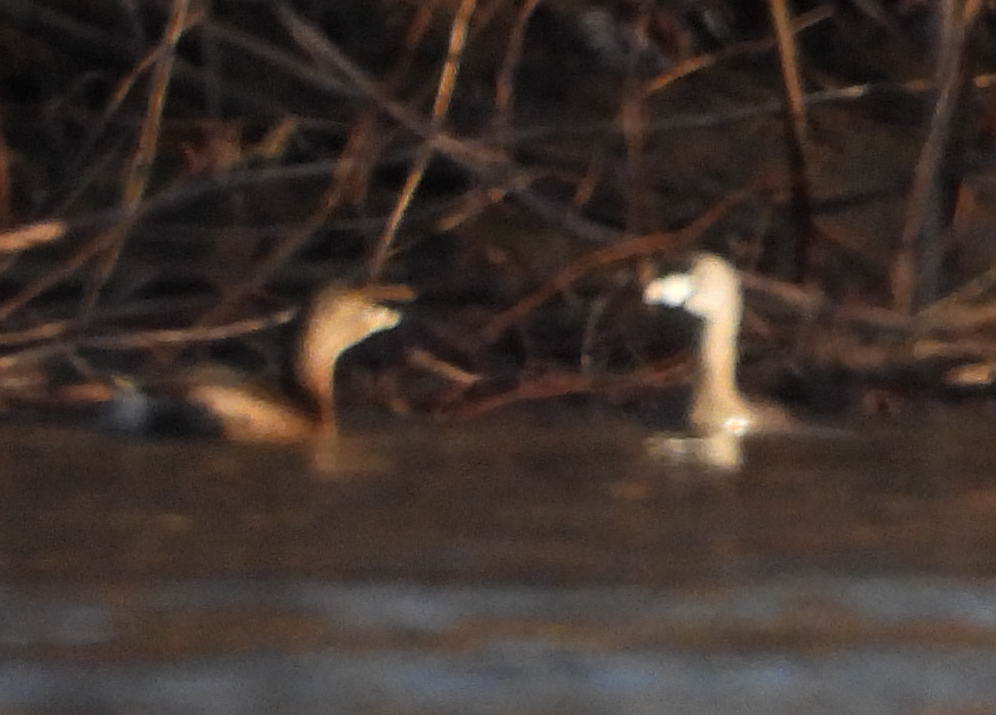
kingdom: Animalia
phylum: Chordata
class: Aves
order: Podicipediformes
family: Podicipedidae
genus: Podilymbus
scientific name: Podilymbus podiceps
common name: Pied-billed grebe
